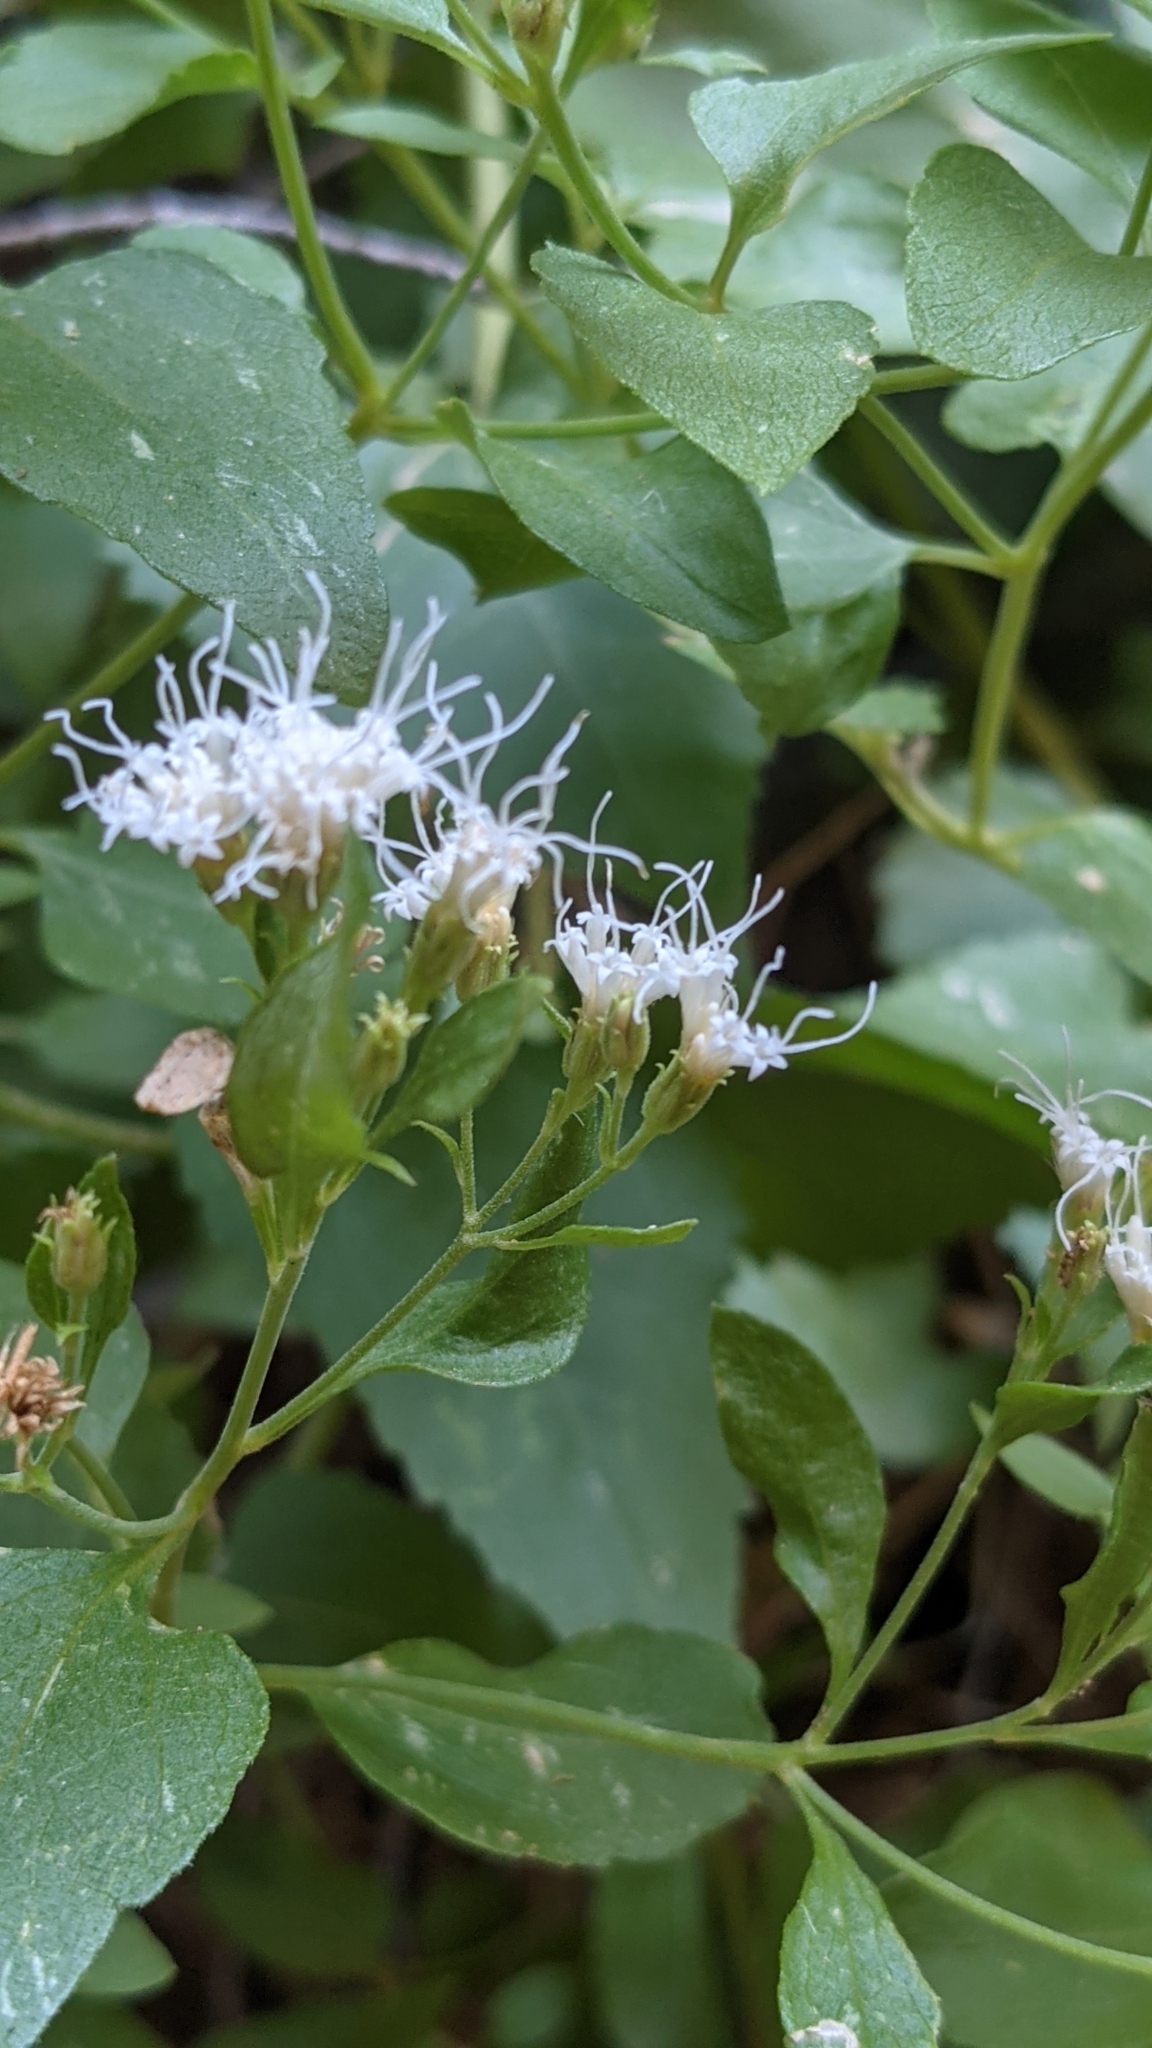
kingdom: Plantae
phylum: Tracheophyta
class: Magnoliopsida
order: Asterales
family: Asteraceae
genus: Ageratina
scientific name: Ageratina herbacea
